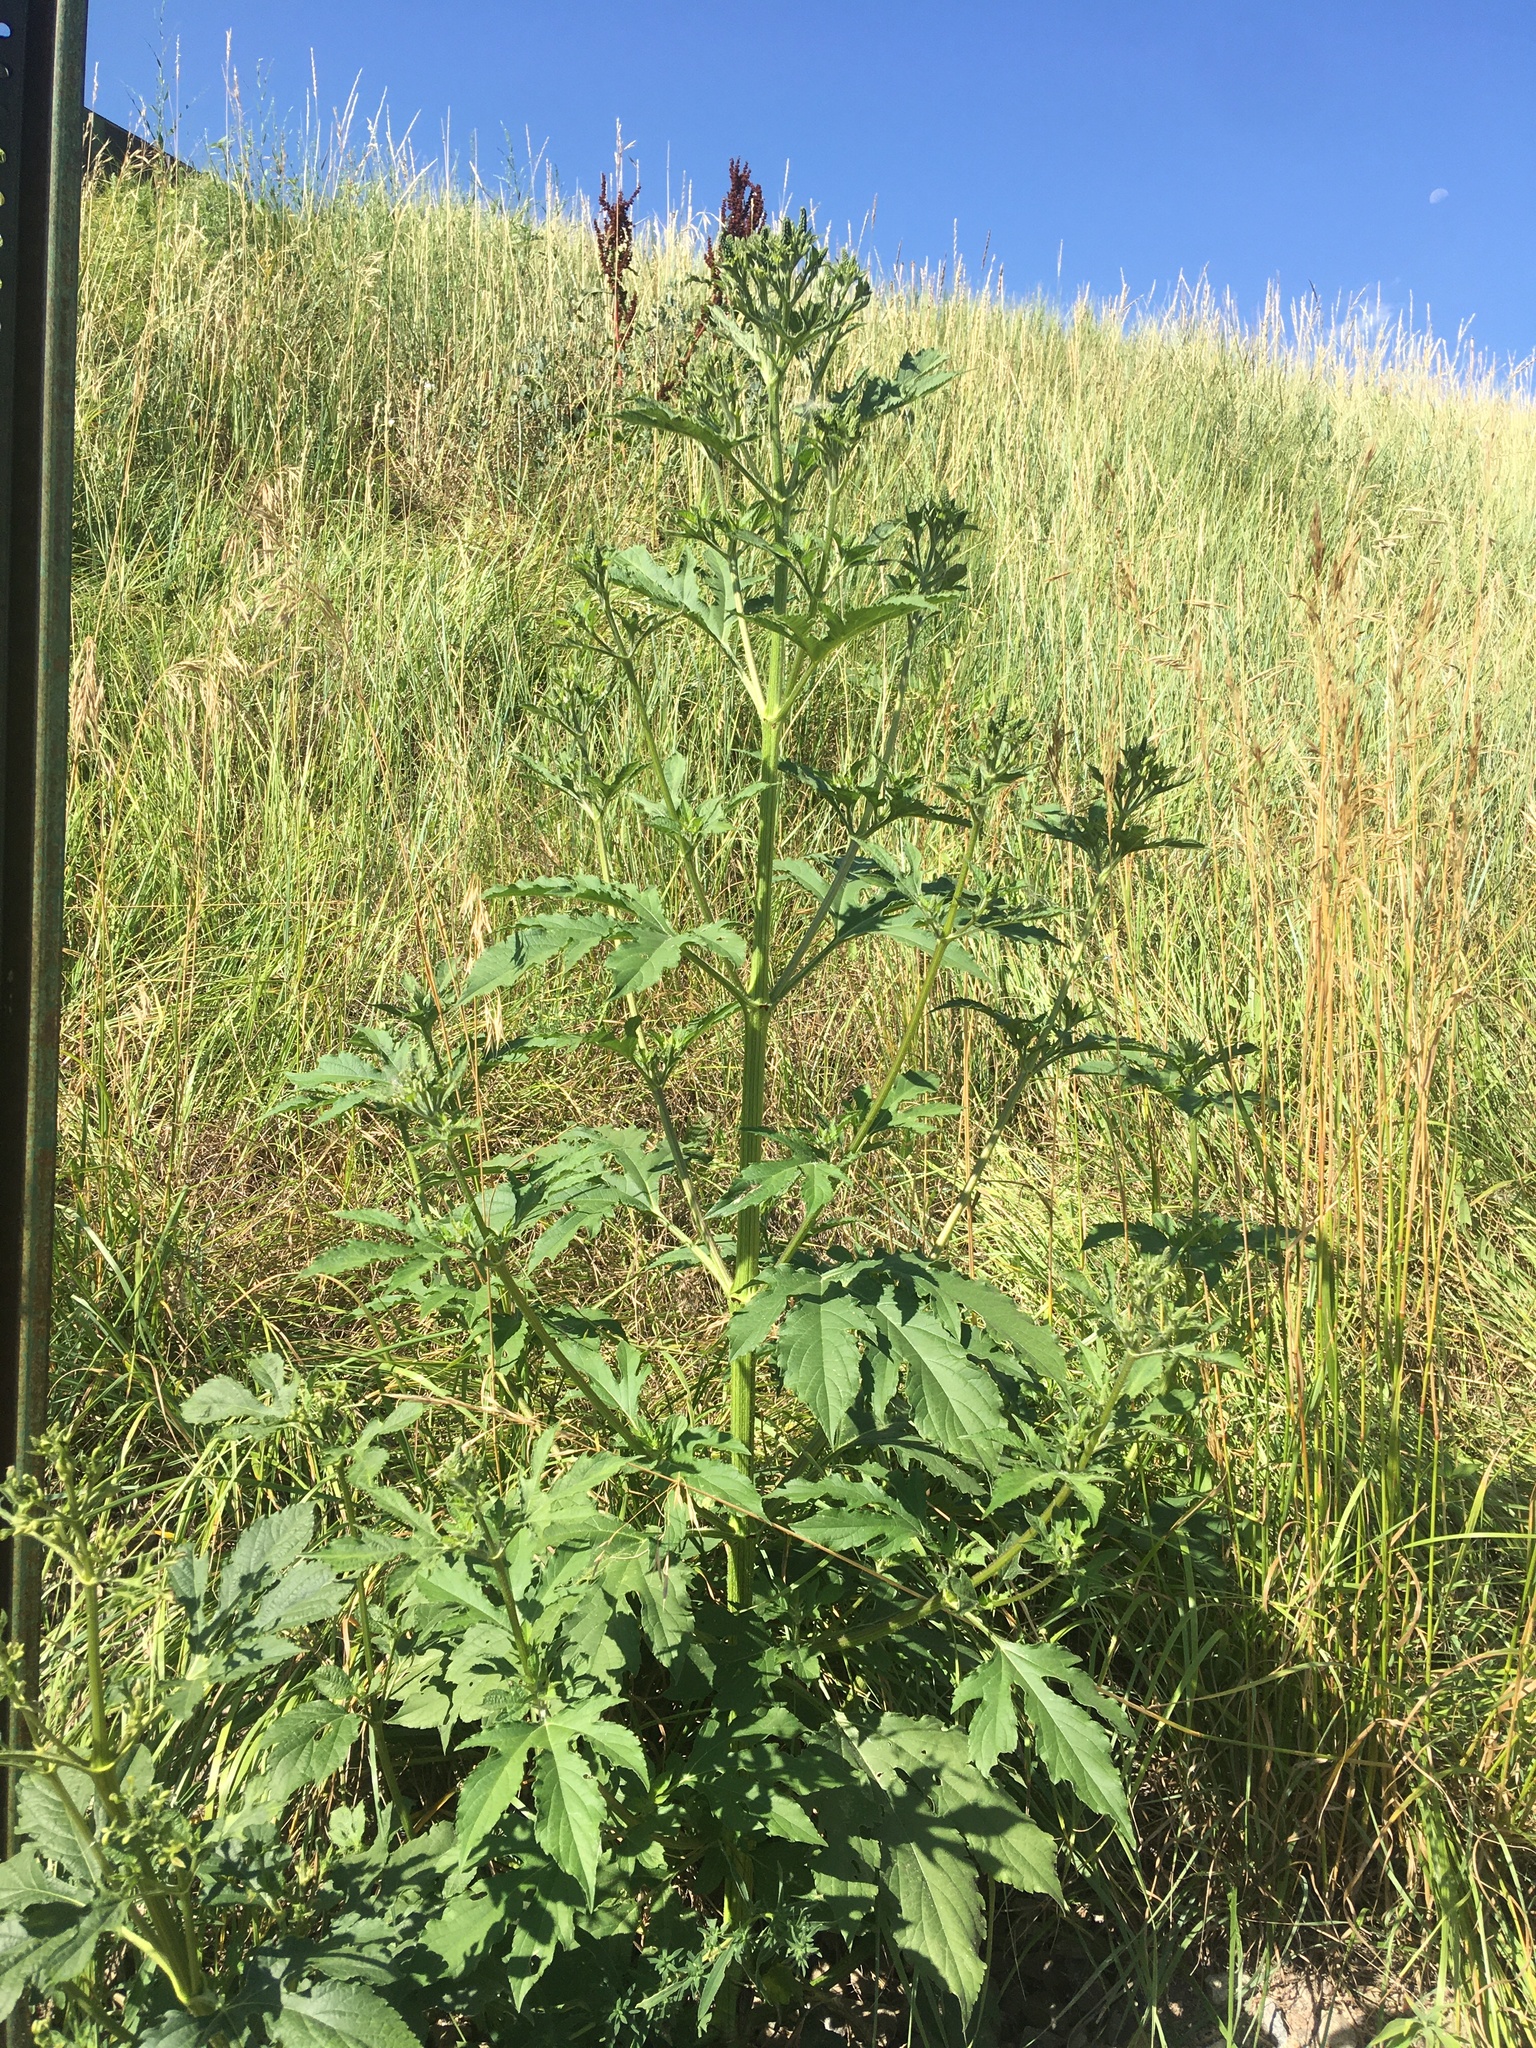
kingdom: Plantae
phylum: Tracheophyta
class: Magnoliopsida
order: Asterales
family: Asteraceae
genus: Ambrosia
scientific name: Ambrosia trifida
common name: Giant ragweed
